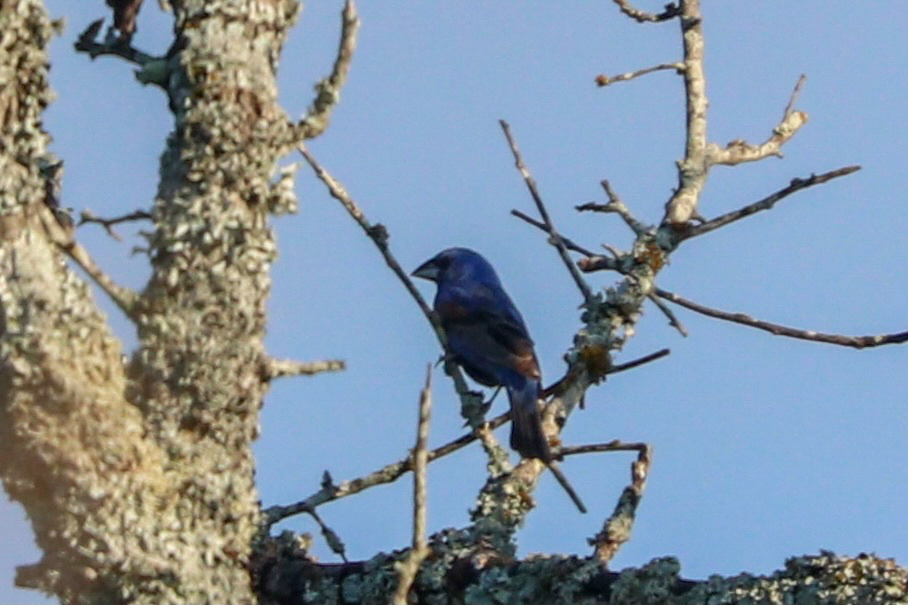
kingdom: Animalia
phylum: Chordata
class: Aves
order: Passeriformes
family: Cardinalidae
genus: Passerina
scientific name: Passerina caerulea
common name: Blue grosbeak
